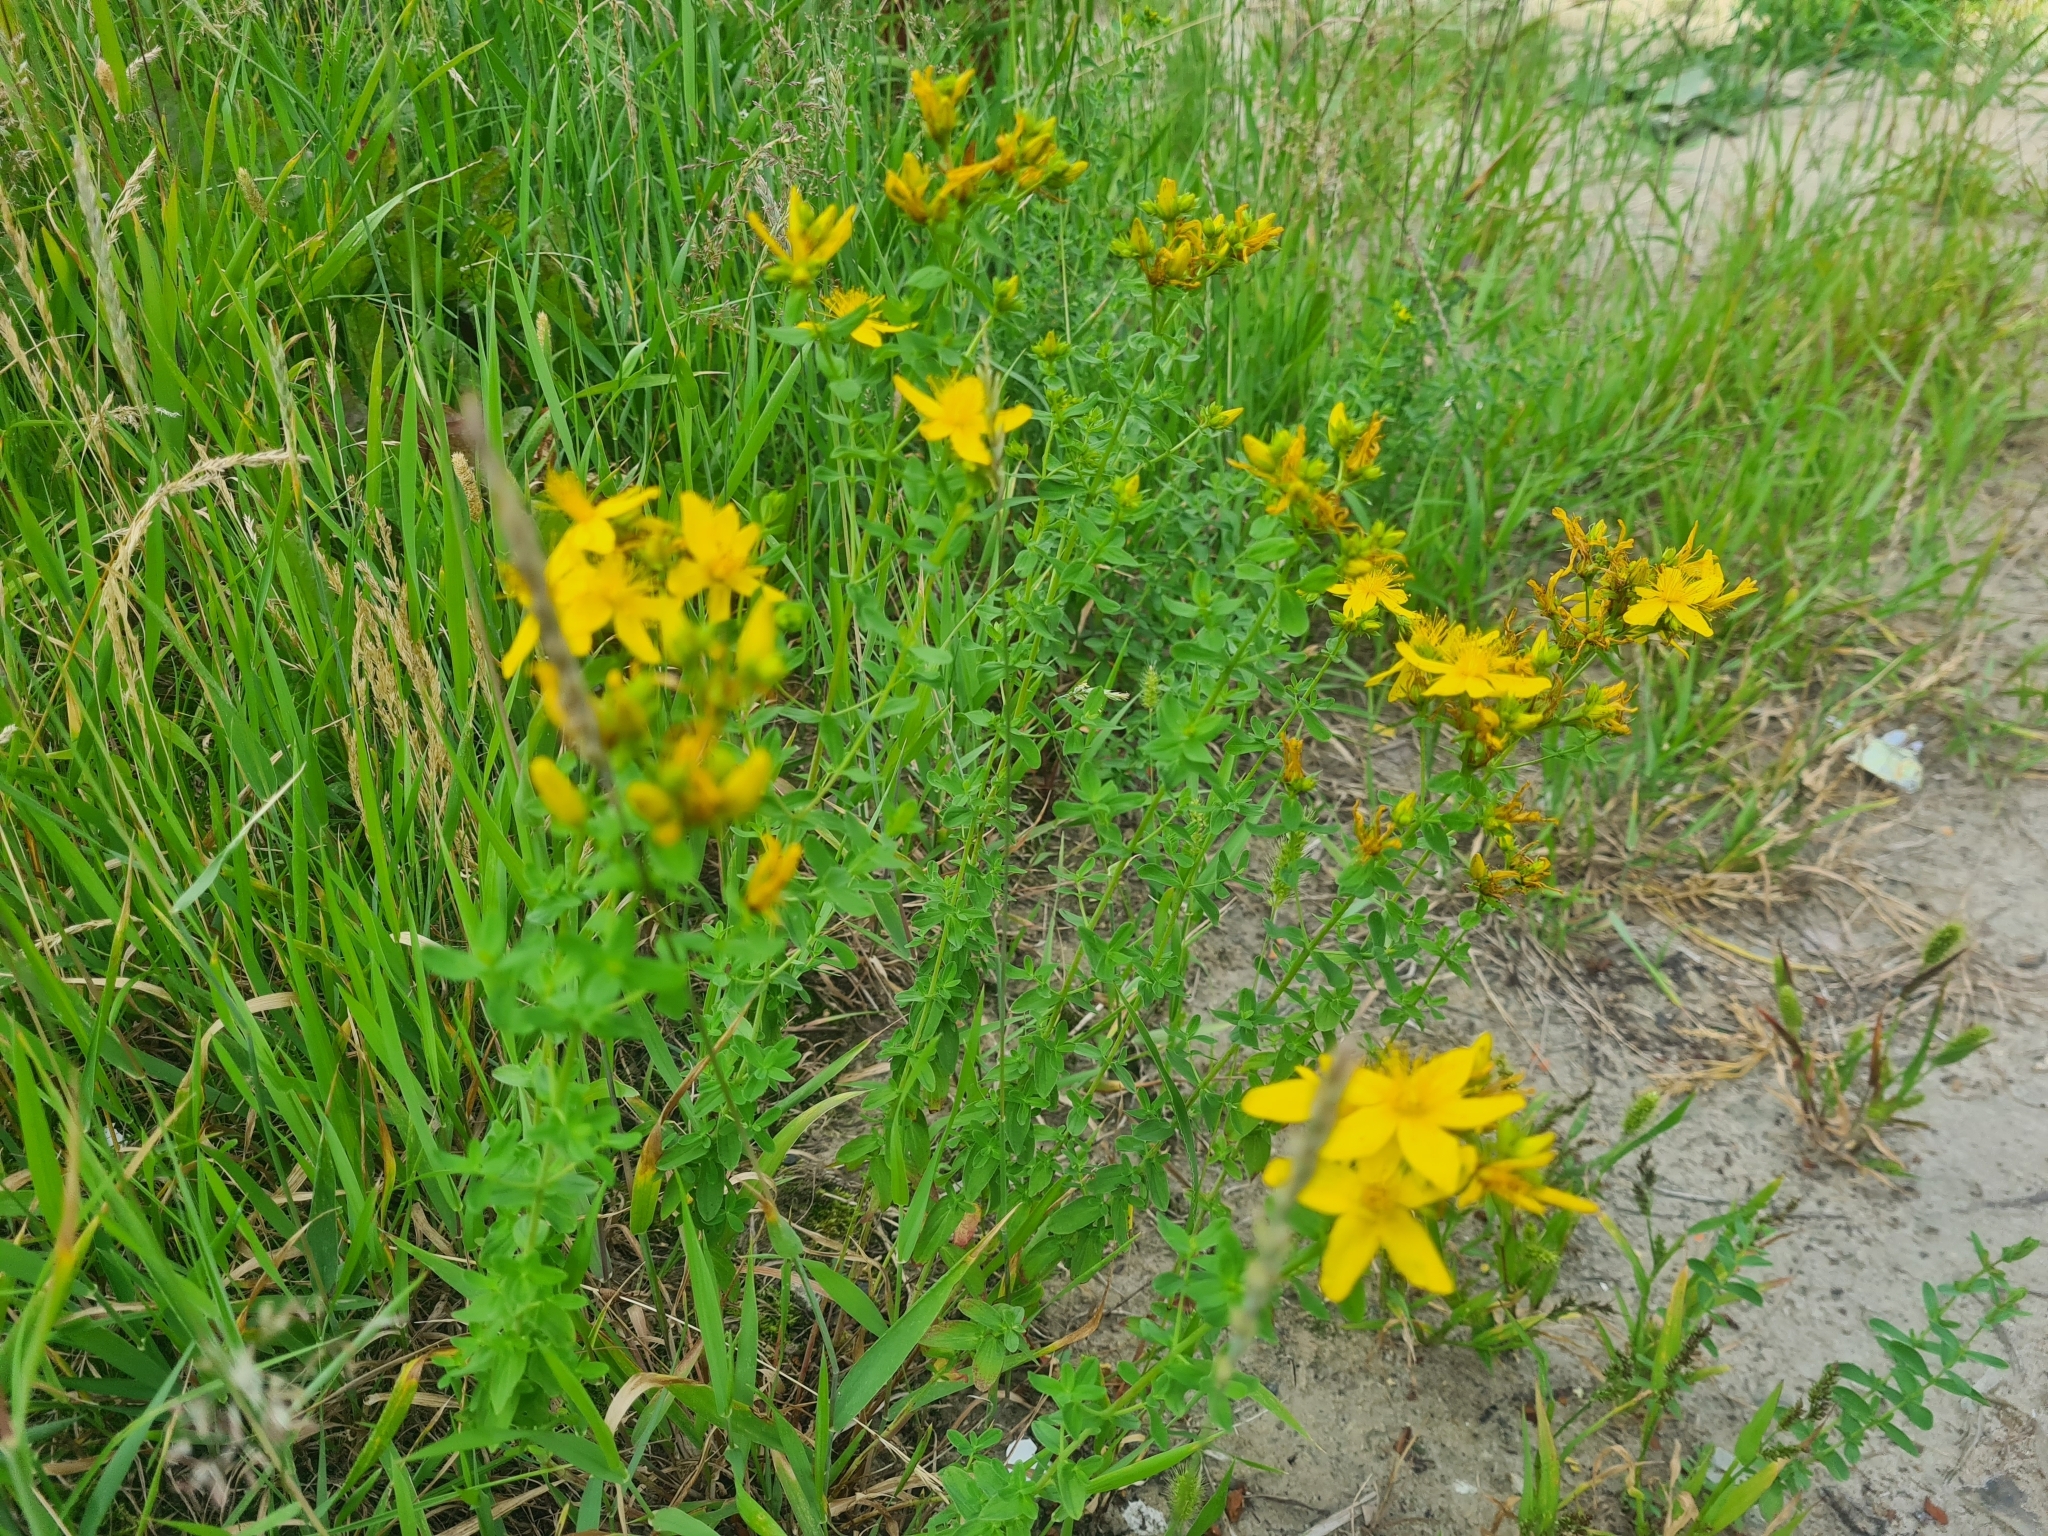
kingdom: Plantae
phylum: Tracheophyta
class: Magnoliopsida
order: Malpighiales
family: Hypericaceae
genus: Hypericum
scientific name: Hypericum perforatum
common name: Common st. johnswort
